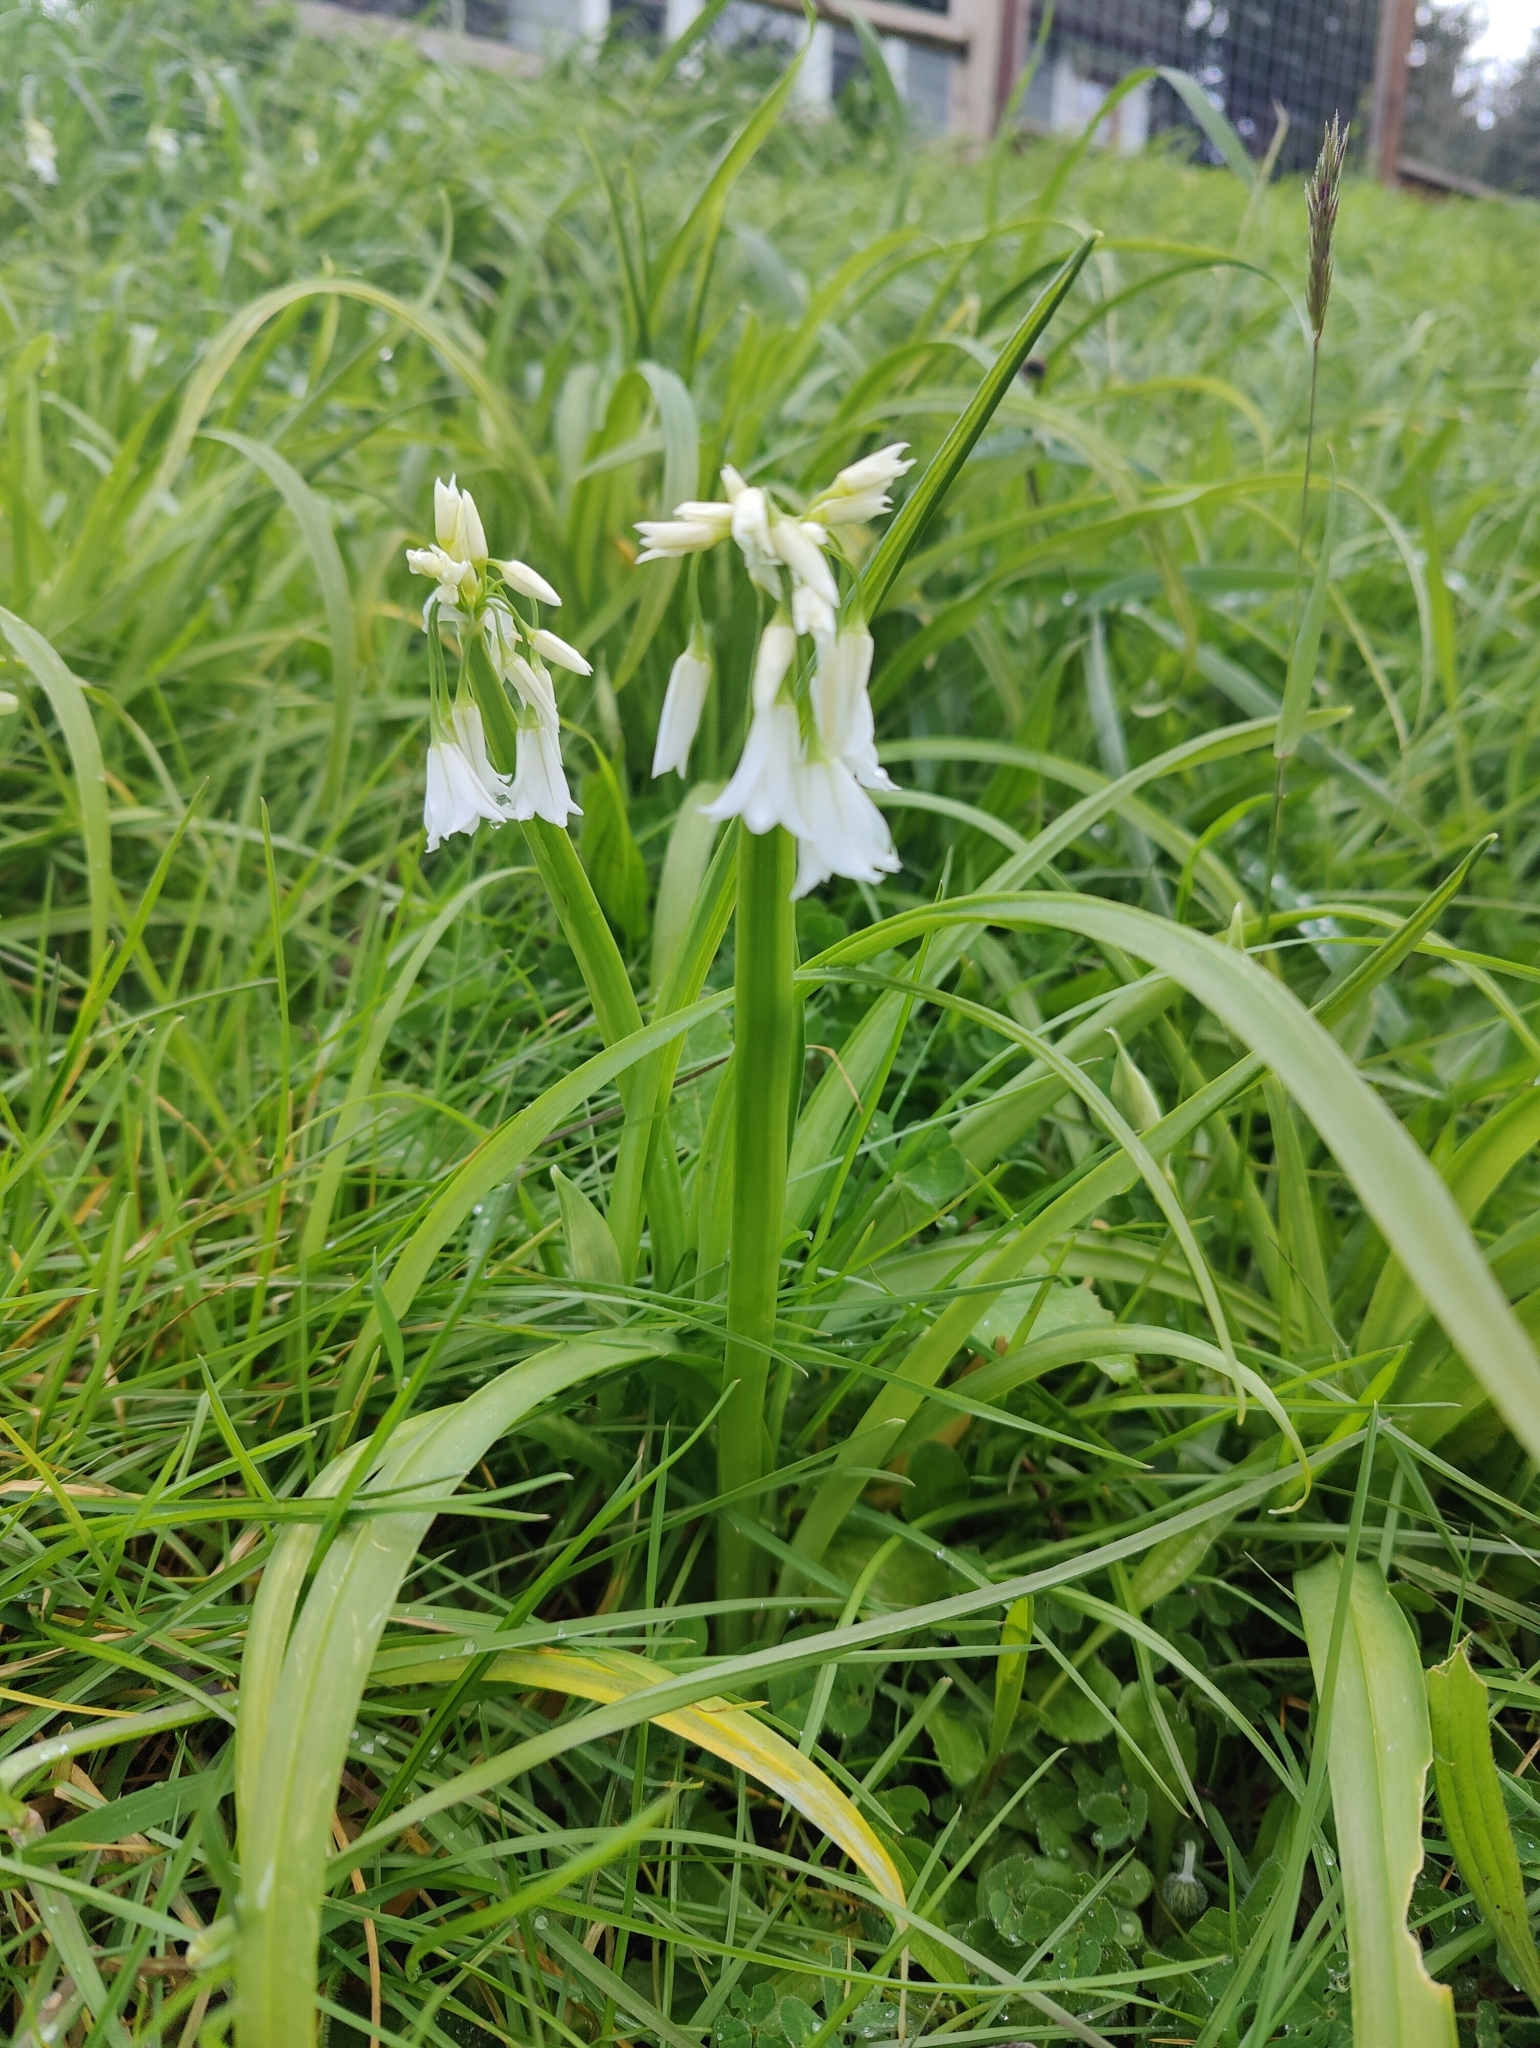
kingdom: Plantae
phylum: Tracheophyta
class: Liliopsida
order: Asparagales
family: Amaryllidaceae
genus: Allium
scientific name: Allium triquetrum
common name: Three-cornered garlic
